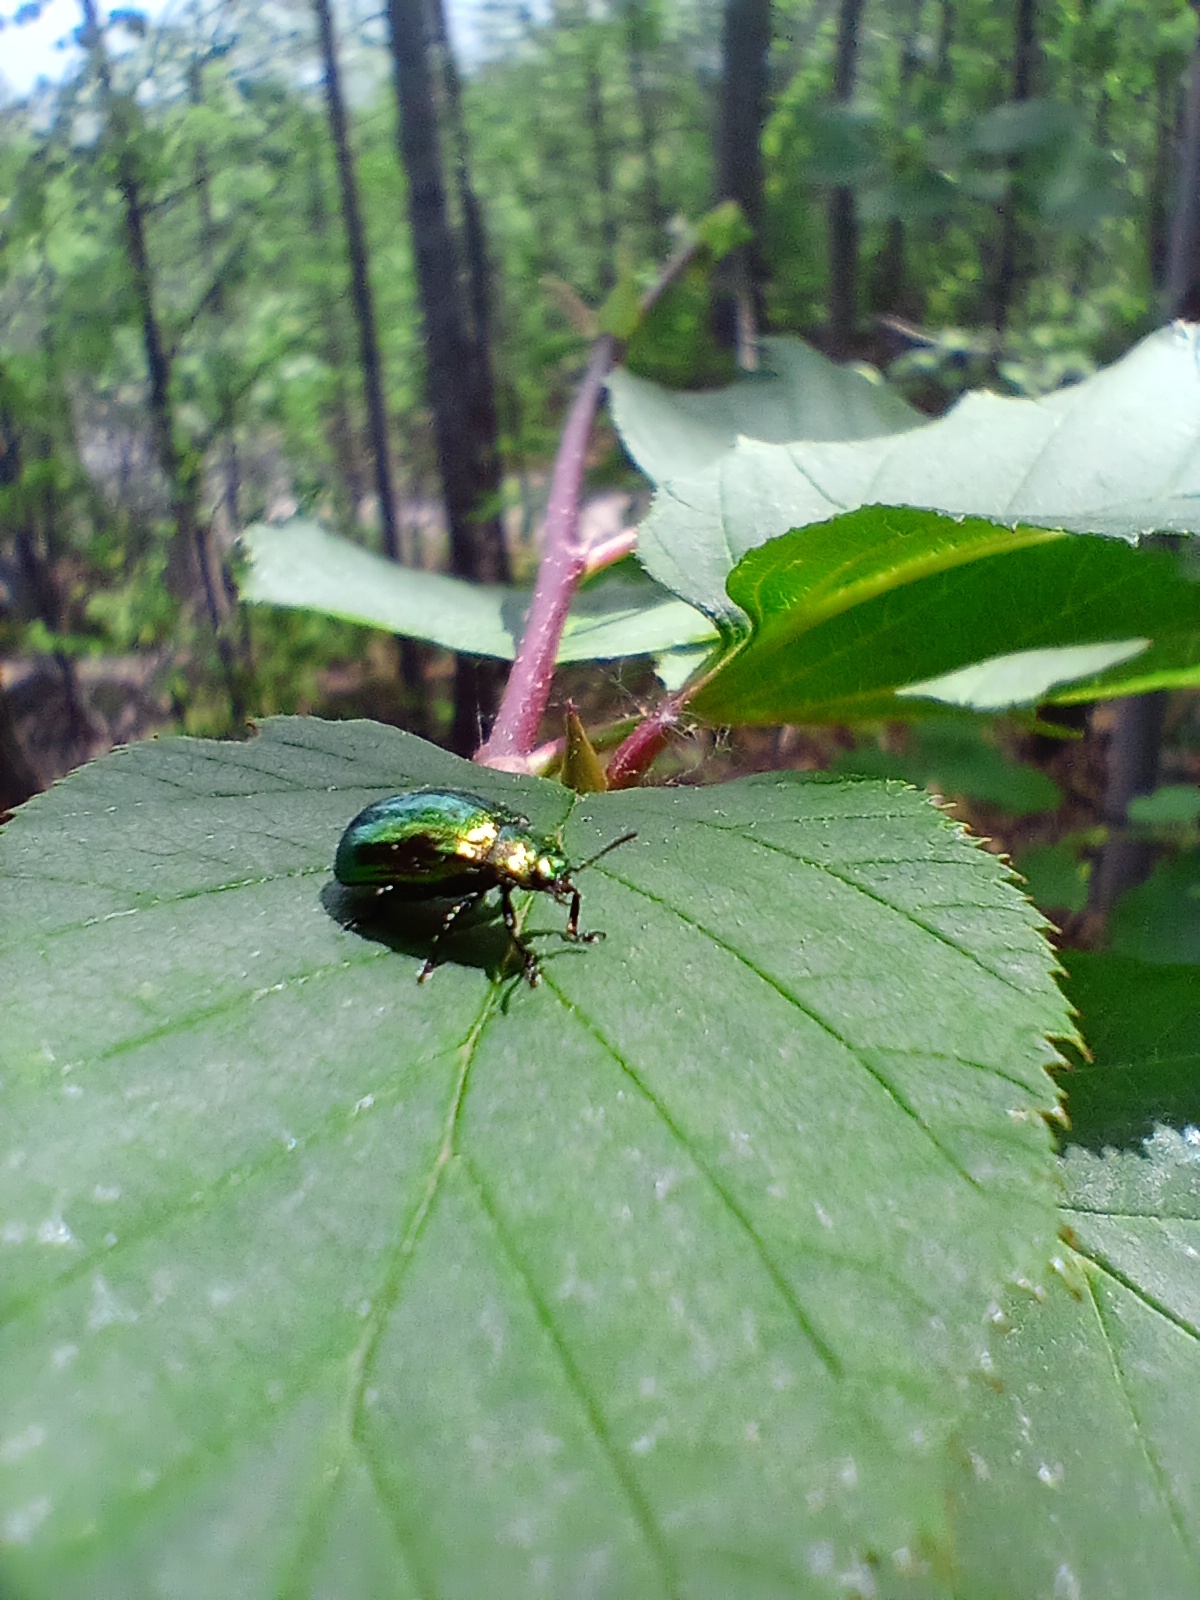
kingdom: Animalia
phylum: Arthropoda
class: Insecta
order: Coleoptera
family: Chrysomelidae
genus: Plagiosterna
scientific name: Plagiosterna aenea
